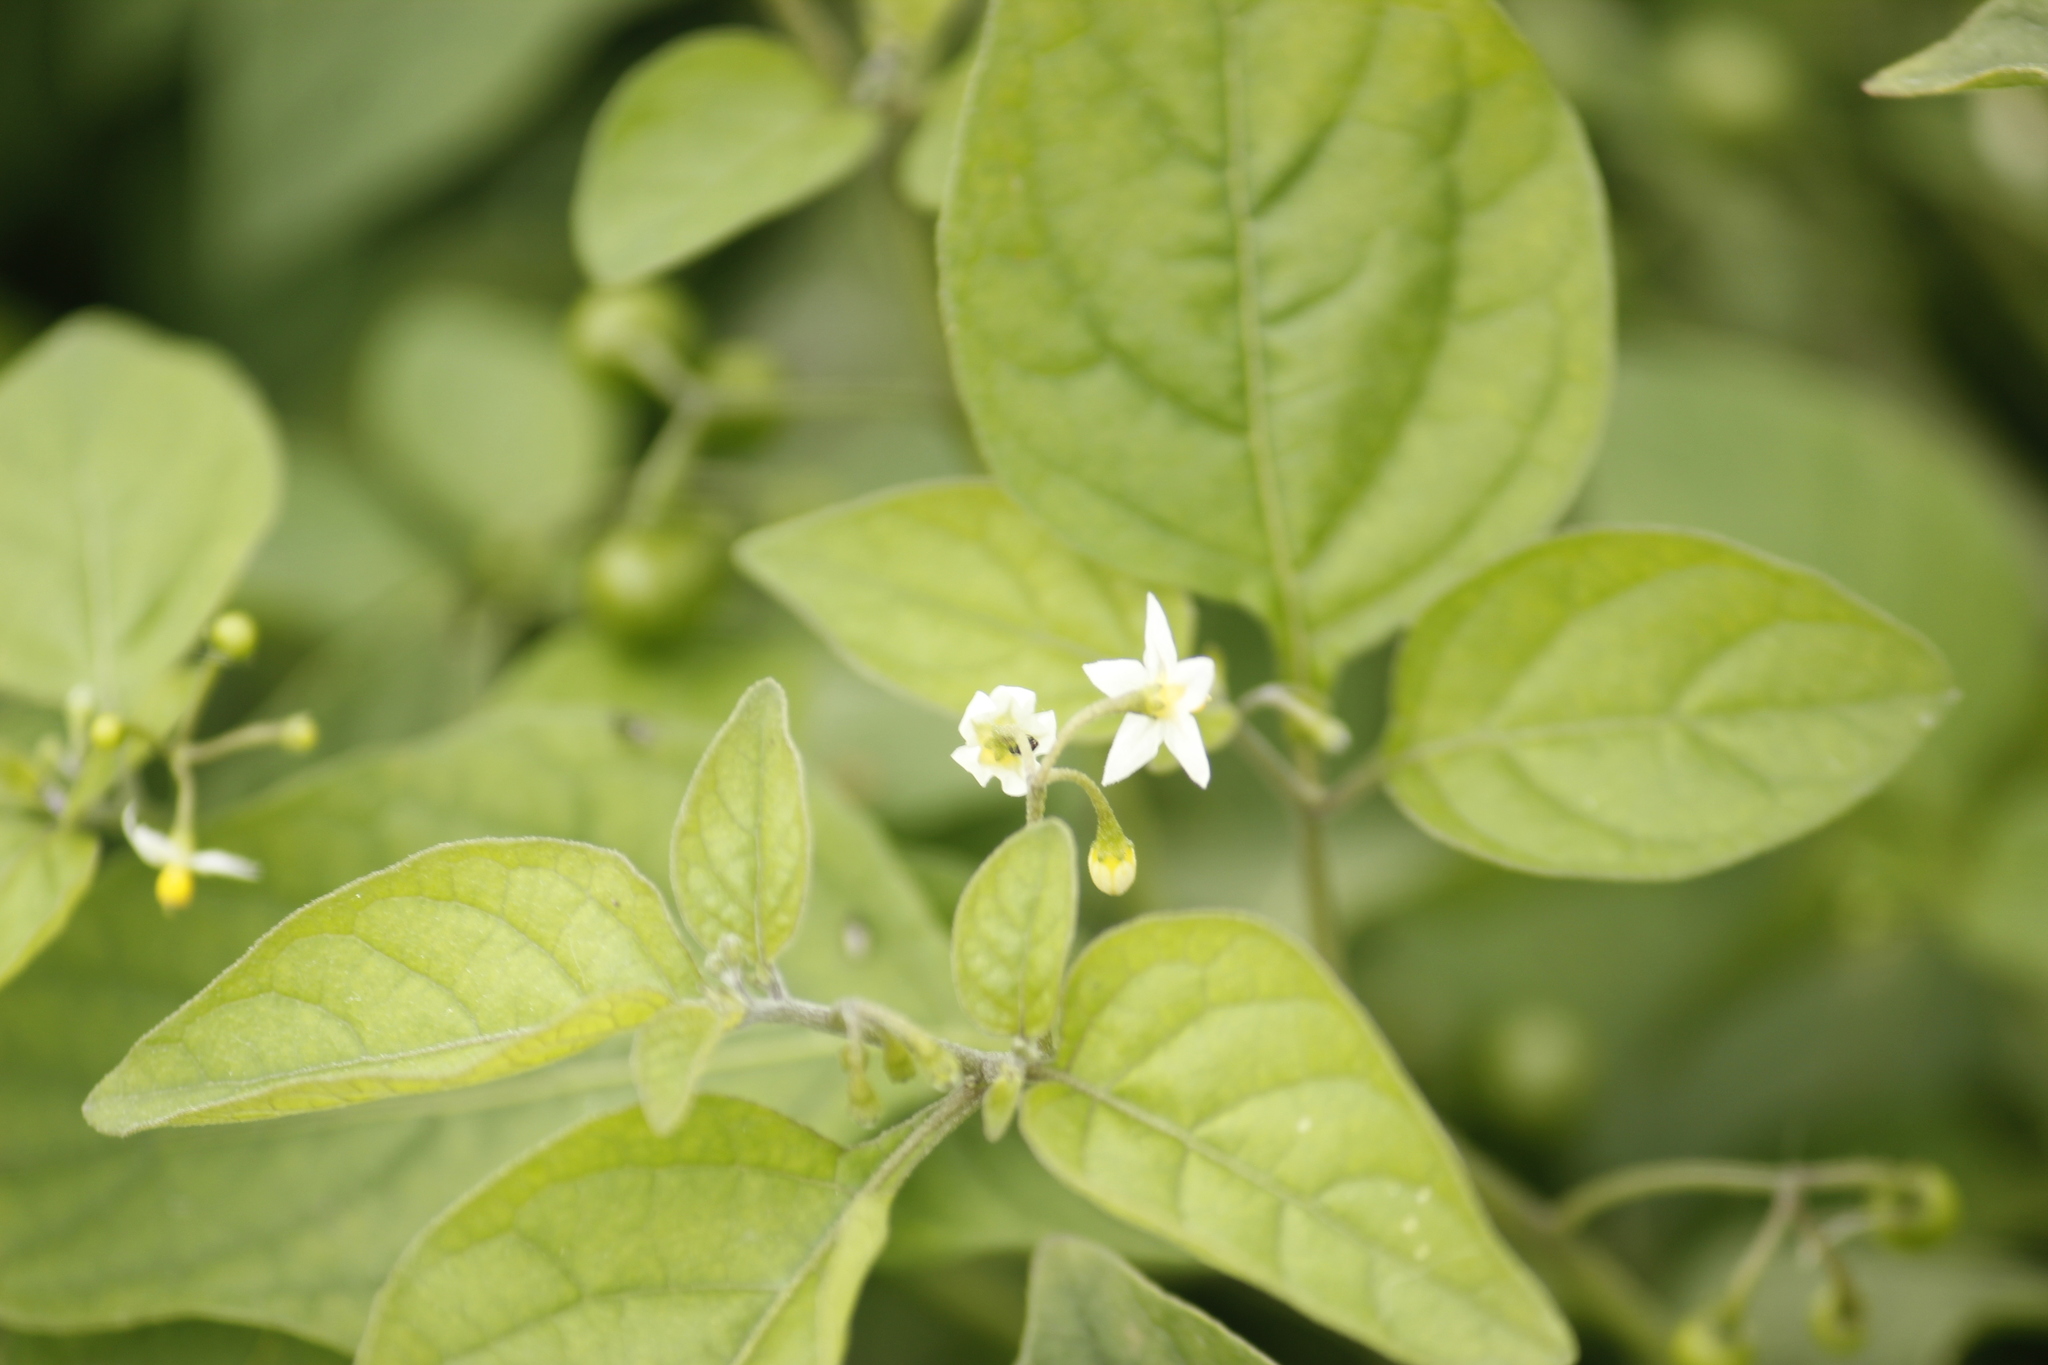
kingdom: Plantae
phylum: Tracheophyta
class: Magnoliopsida
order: Solanales
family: Solanaceae
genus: Solanum
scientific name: Solanum americanum
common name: American black nightshade
